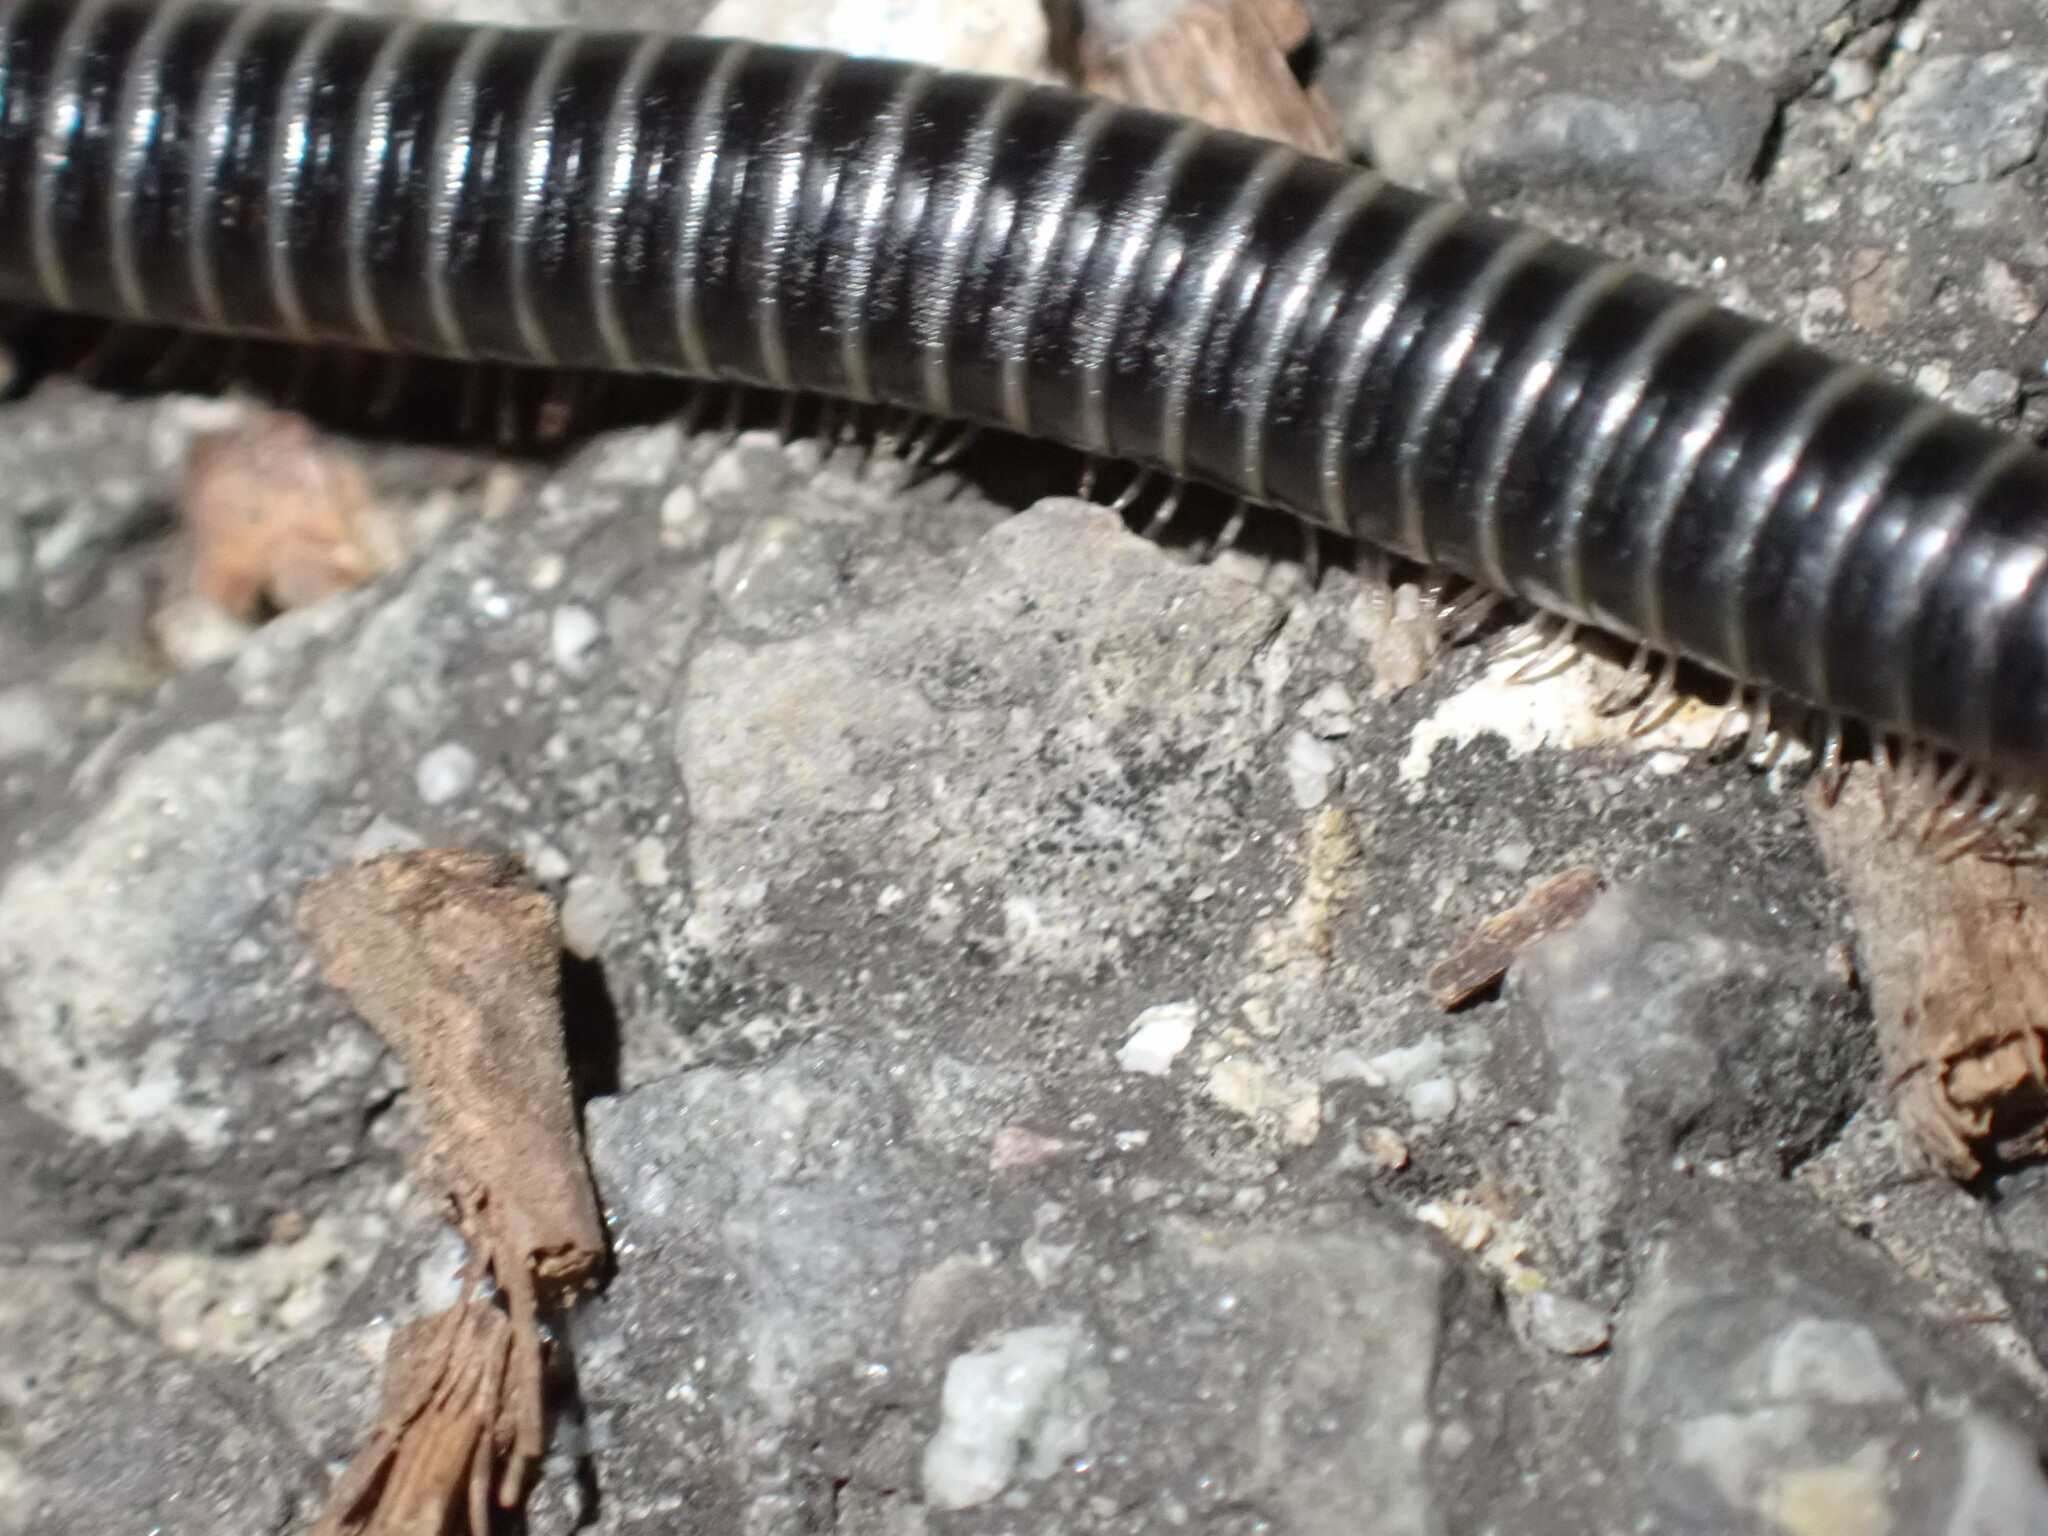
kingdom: Animalia
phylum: Arthropoda
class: Diplopoda
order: Julida
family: Julidae
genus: Ommatoiulus
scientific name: Ommatoiulus sabulosus
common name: Striped millipede
